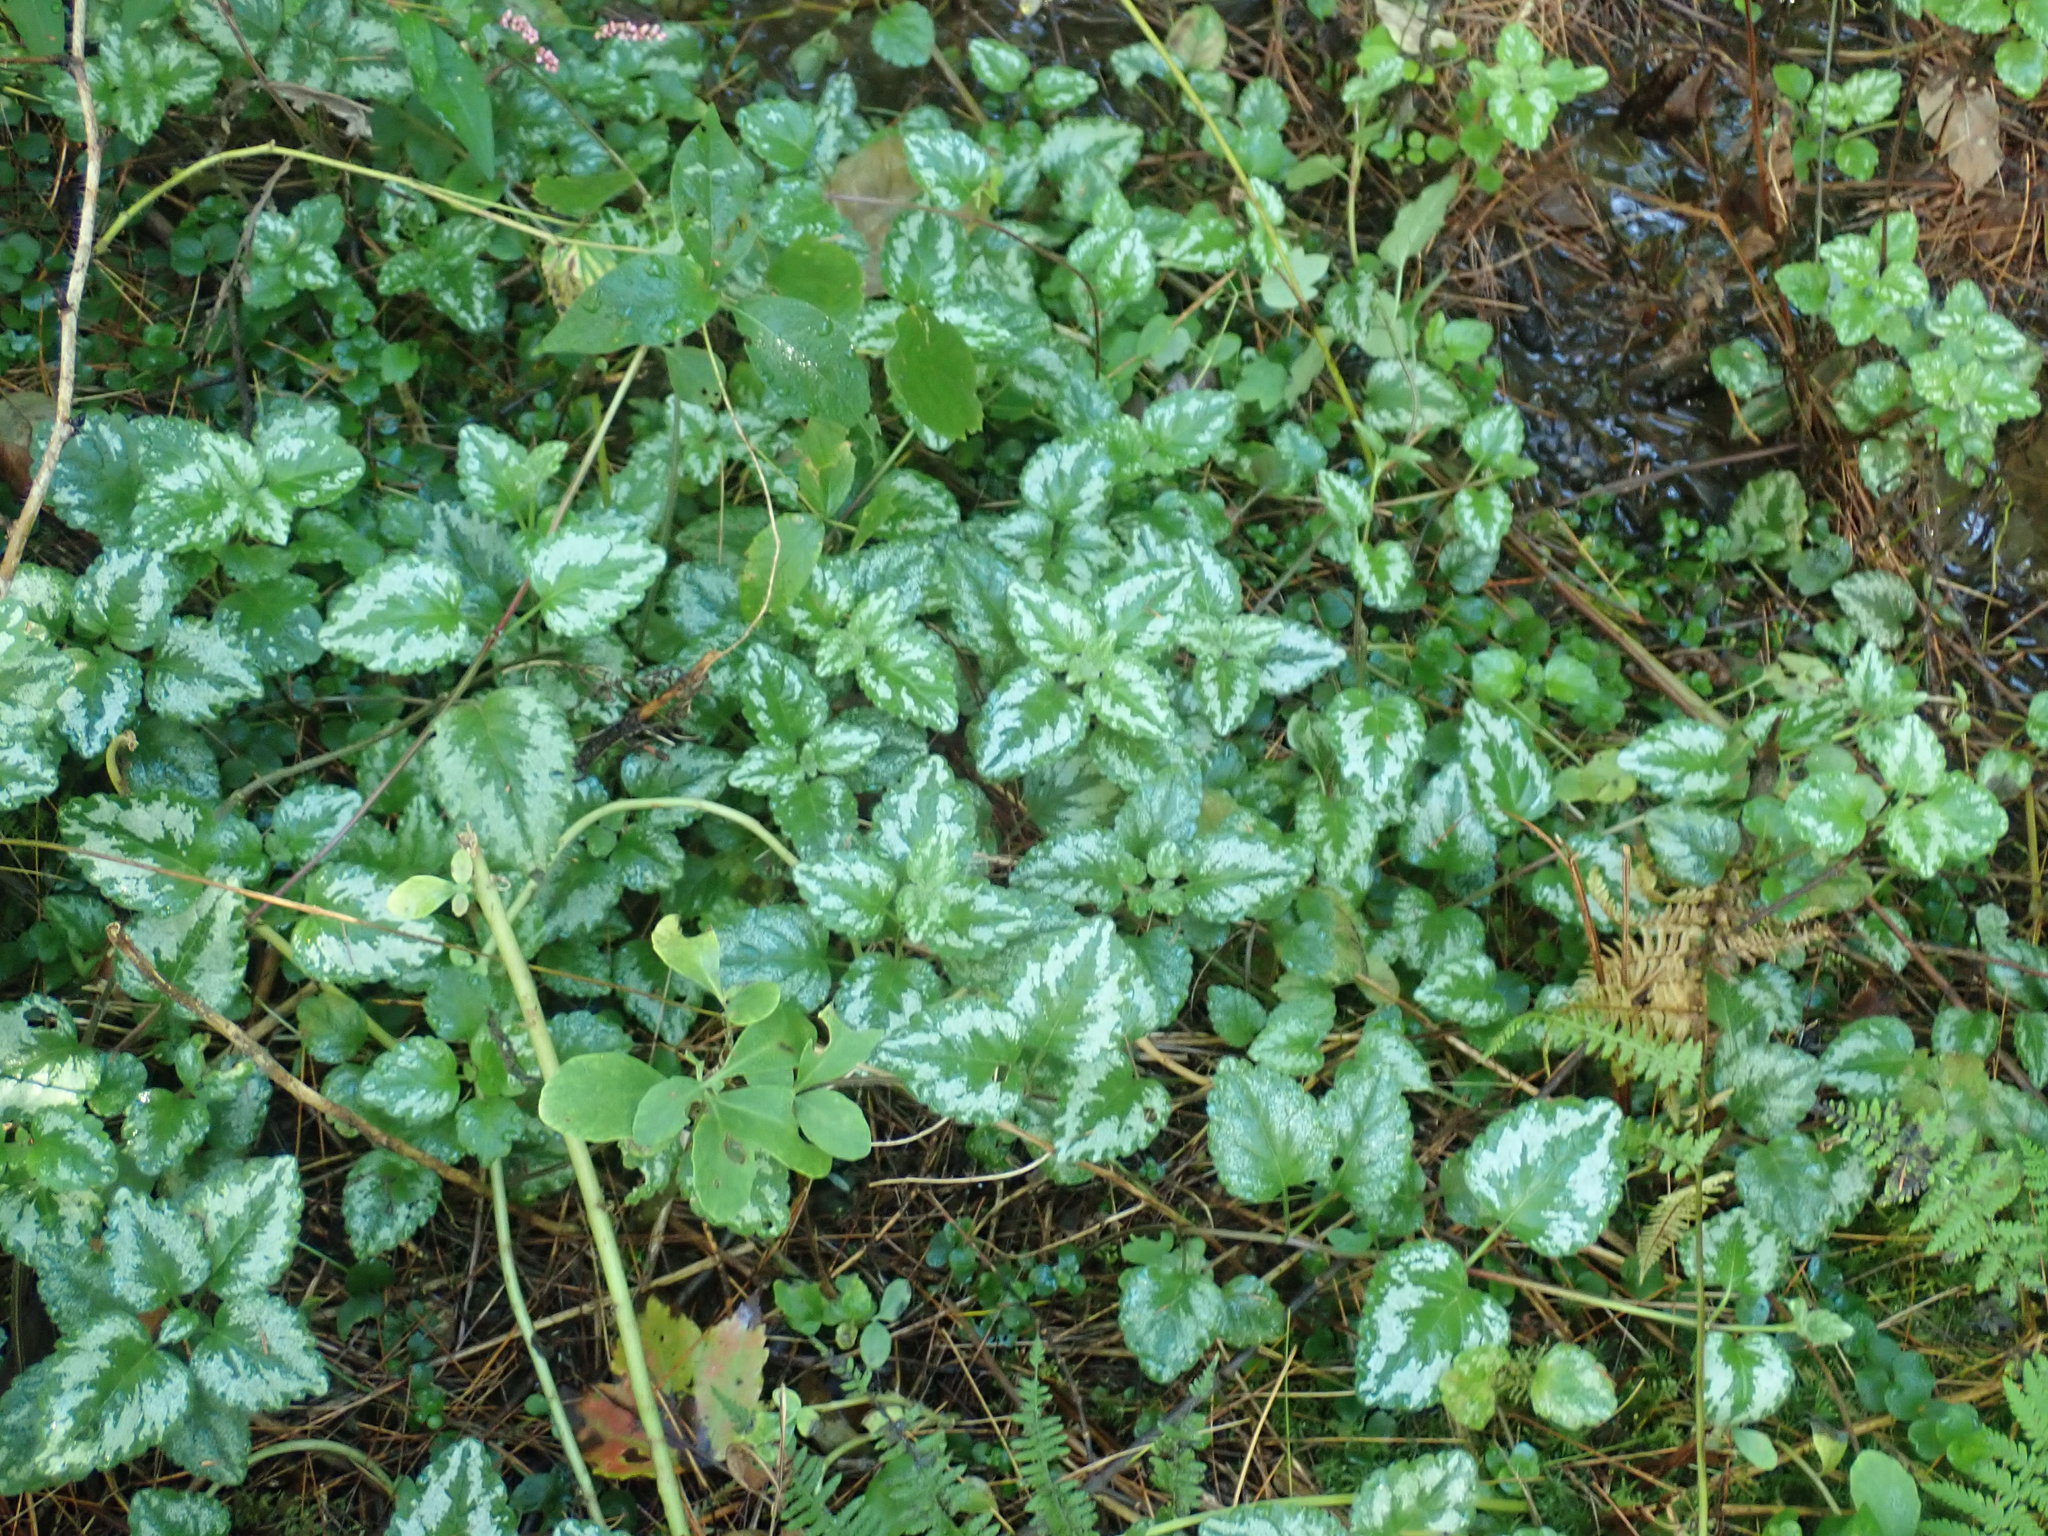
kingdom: Plantae
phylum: Tracheophyta
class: Magnoliopsida
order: Lamiales
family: Lamiaceae
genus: Lamium
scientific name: Lamium galeobdolon
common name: Yellow archangel
